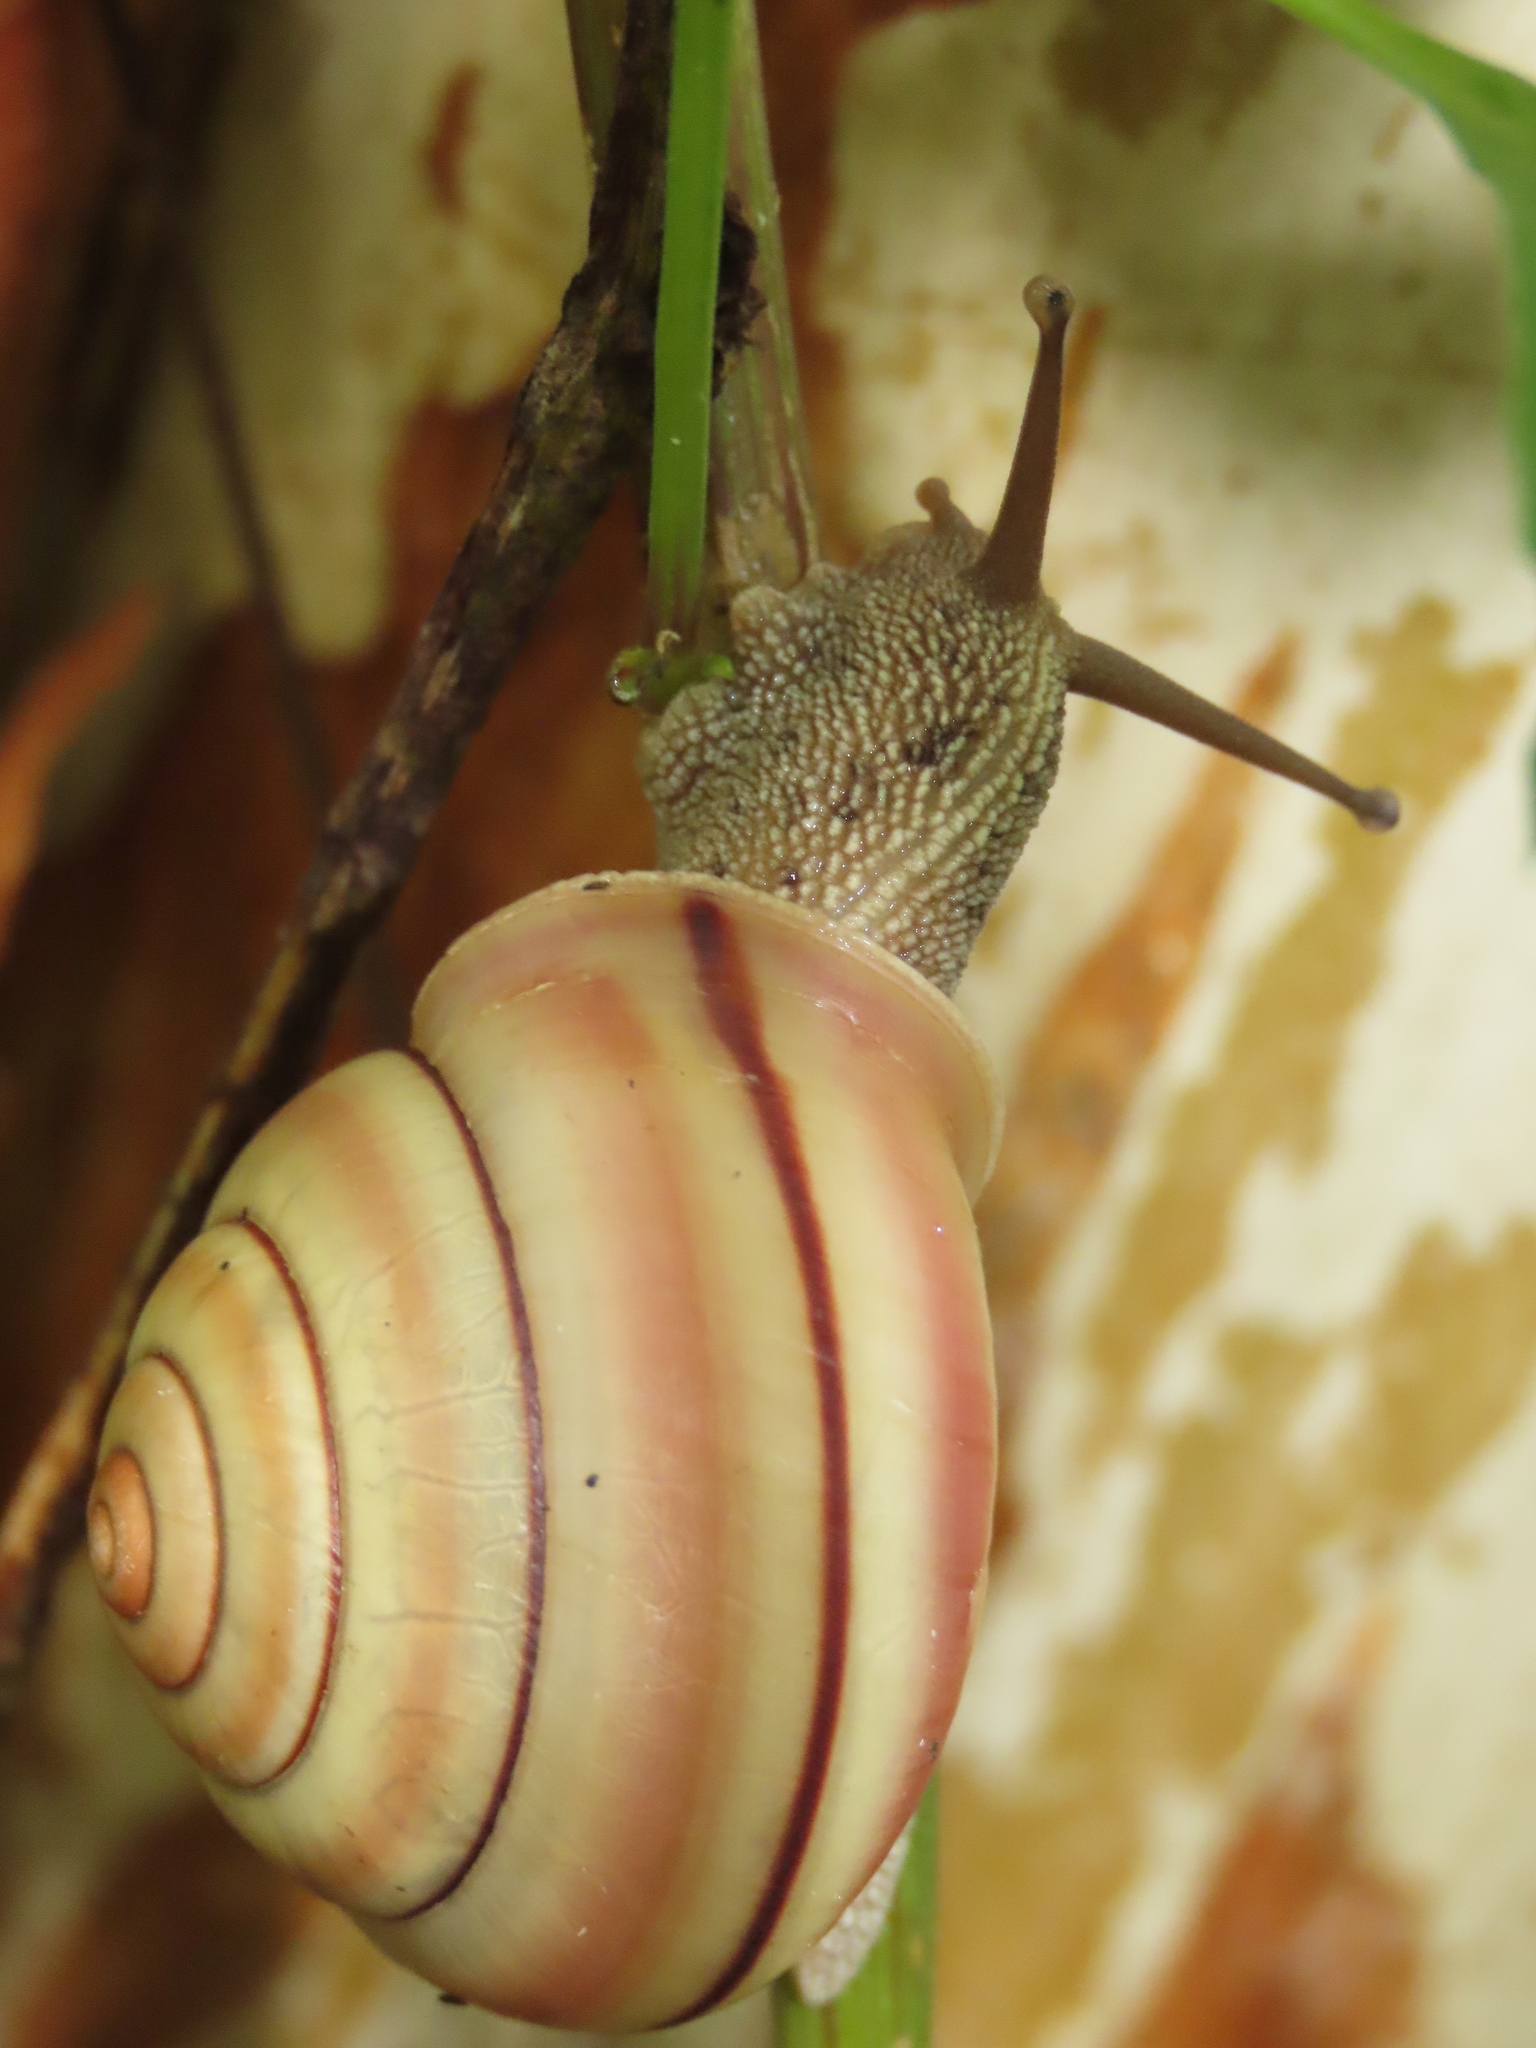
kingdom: Animalia
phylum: Mollusca
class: Gastropoda
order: Stylommatophora
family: Camaenidae
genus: Satsuma
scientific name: Satsuma wenshini
